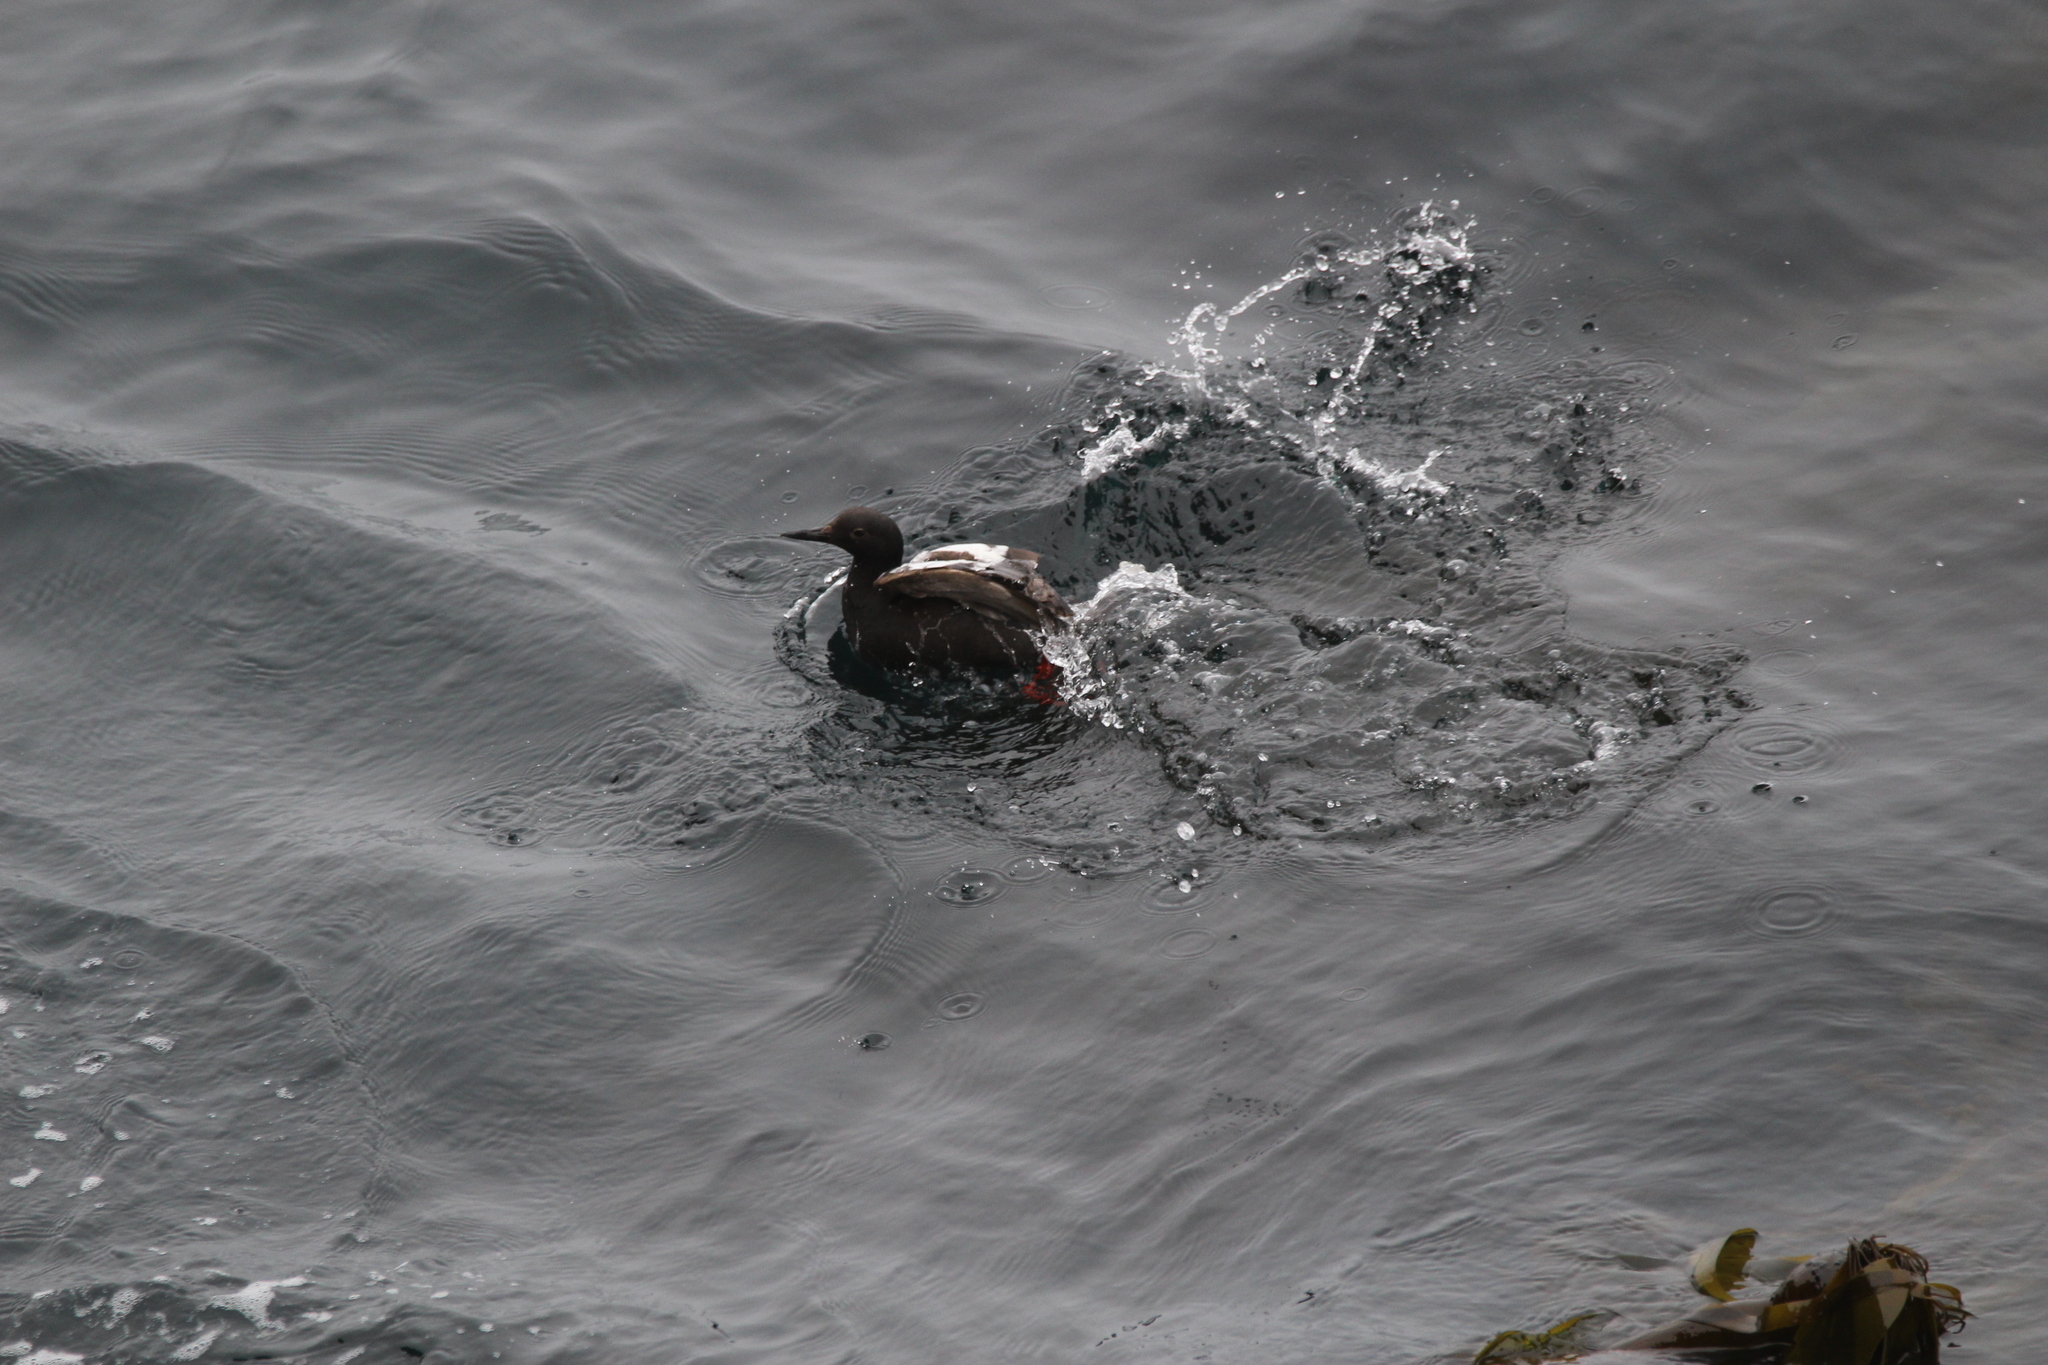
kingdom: Animalia
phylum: Chordata
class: Aves
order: Charadriiformes
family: Alcidae
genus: Cepphus
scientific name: Cepphus columba
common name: Pigeon guillemot
